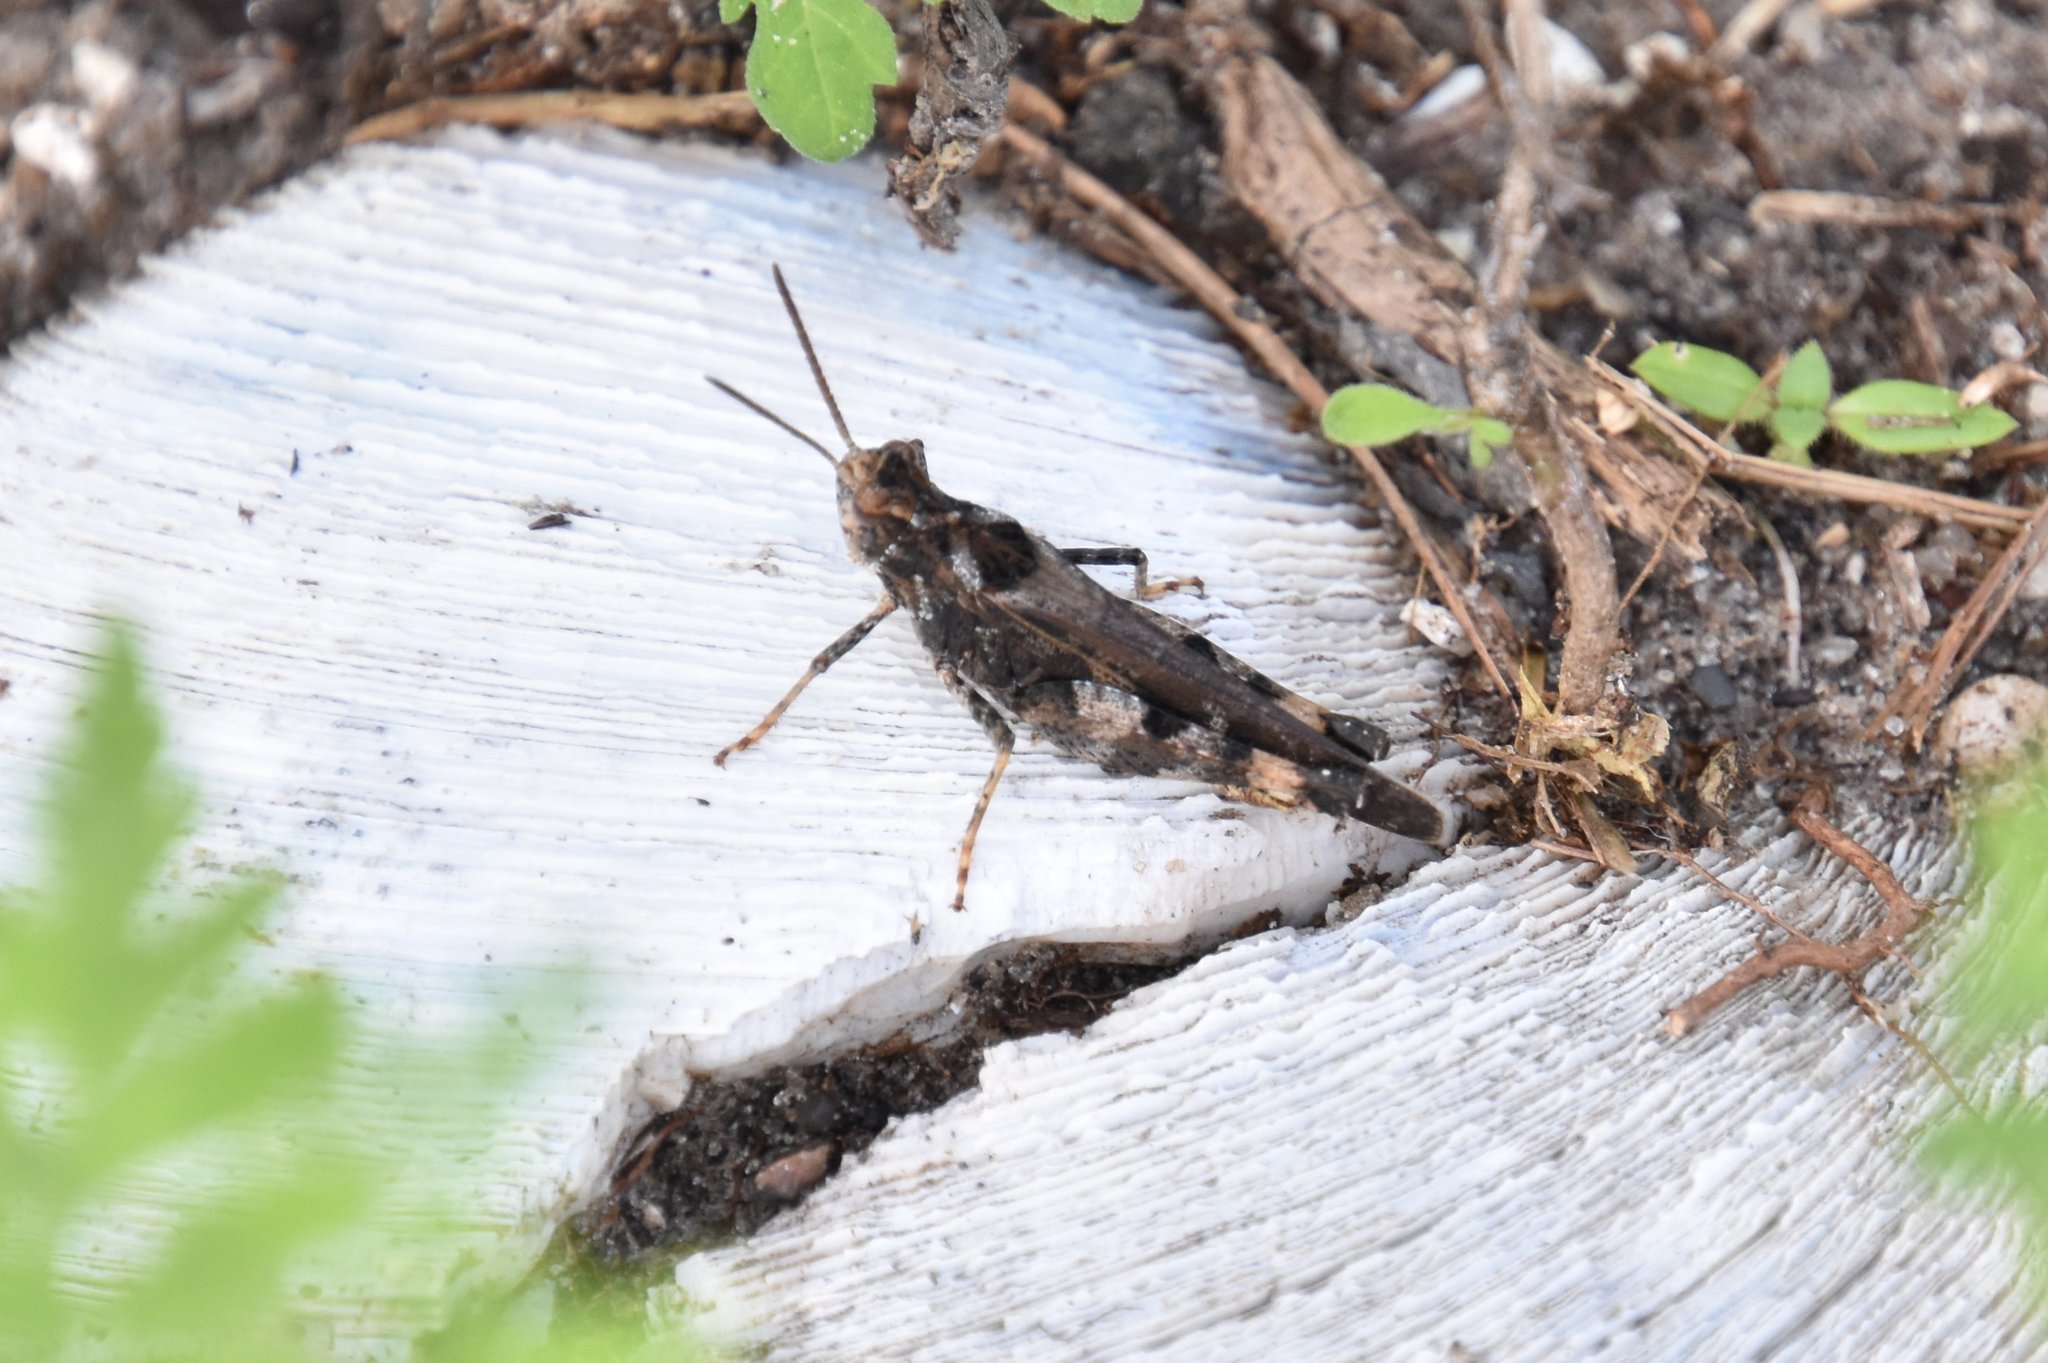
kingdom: Animalia
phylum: Arthropoda
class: Insecta
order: Orthoptera
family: Acrididae
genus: Chortophaga
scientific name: Chortophaga australior
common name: Southern green-striped grasshopper
